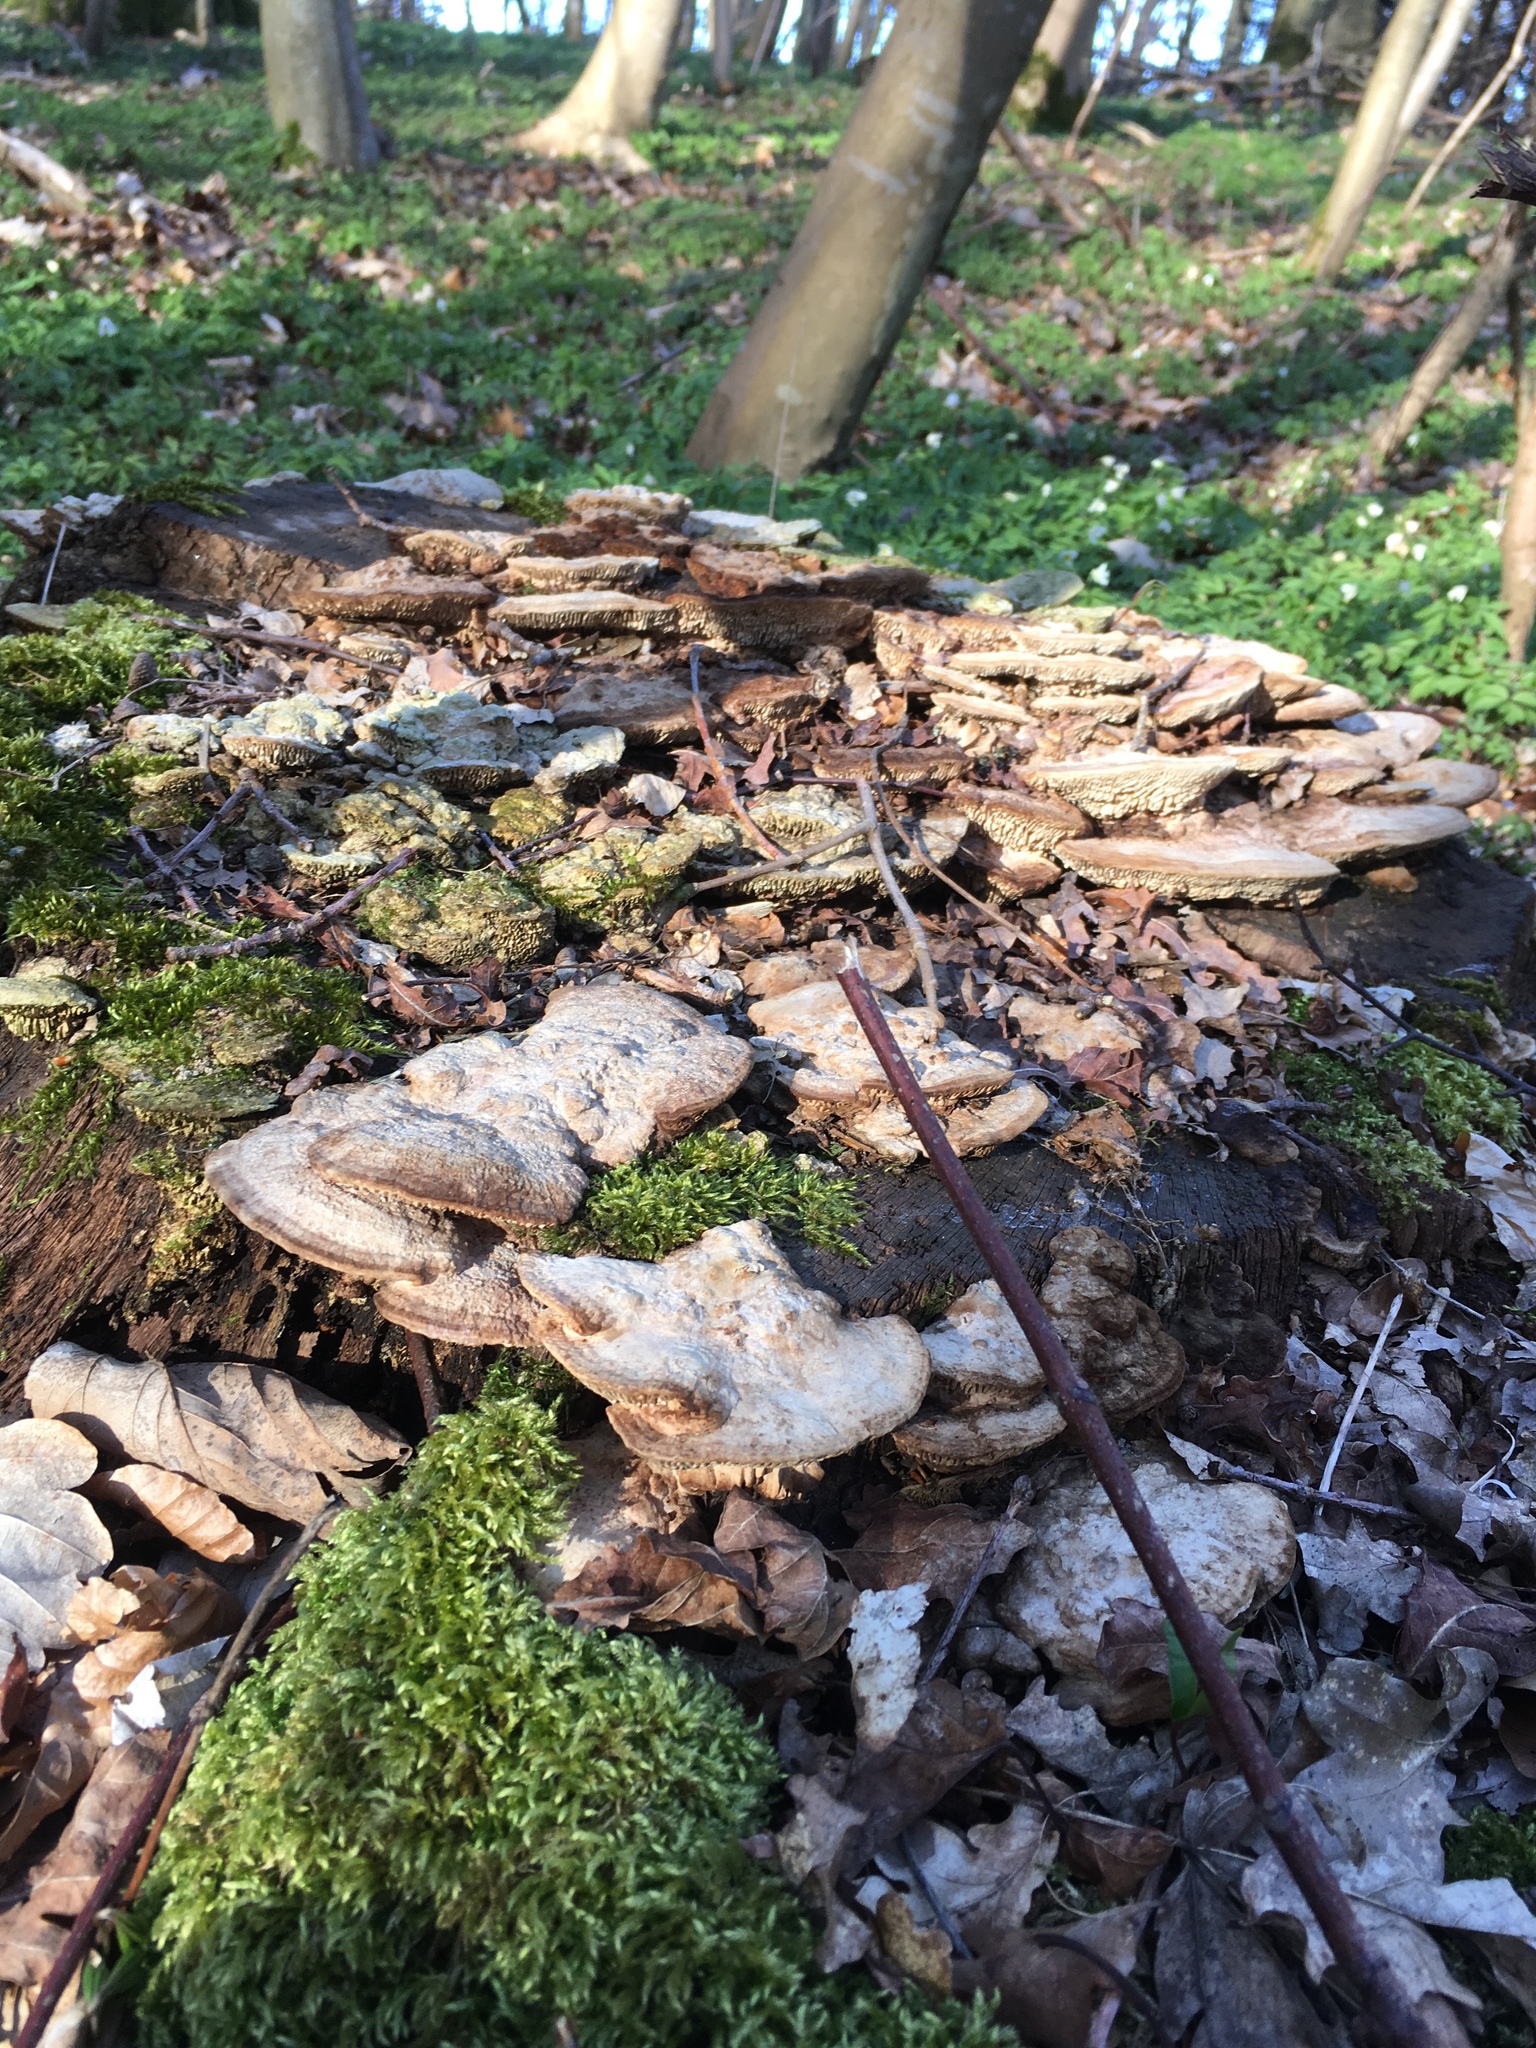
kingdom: Fungi
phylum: Basidiomycota
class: Agaricomycetes
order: Polyporales
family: Fomitopsidaceae
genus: Fomitopsis
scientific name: Fomitopsis
